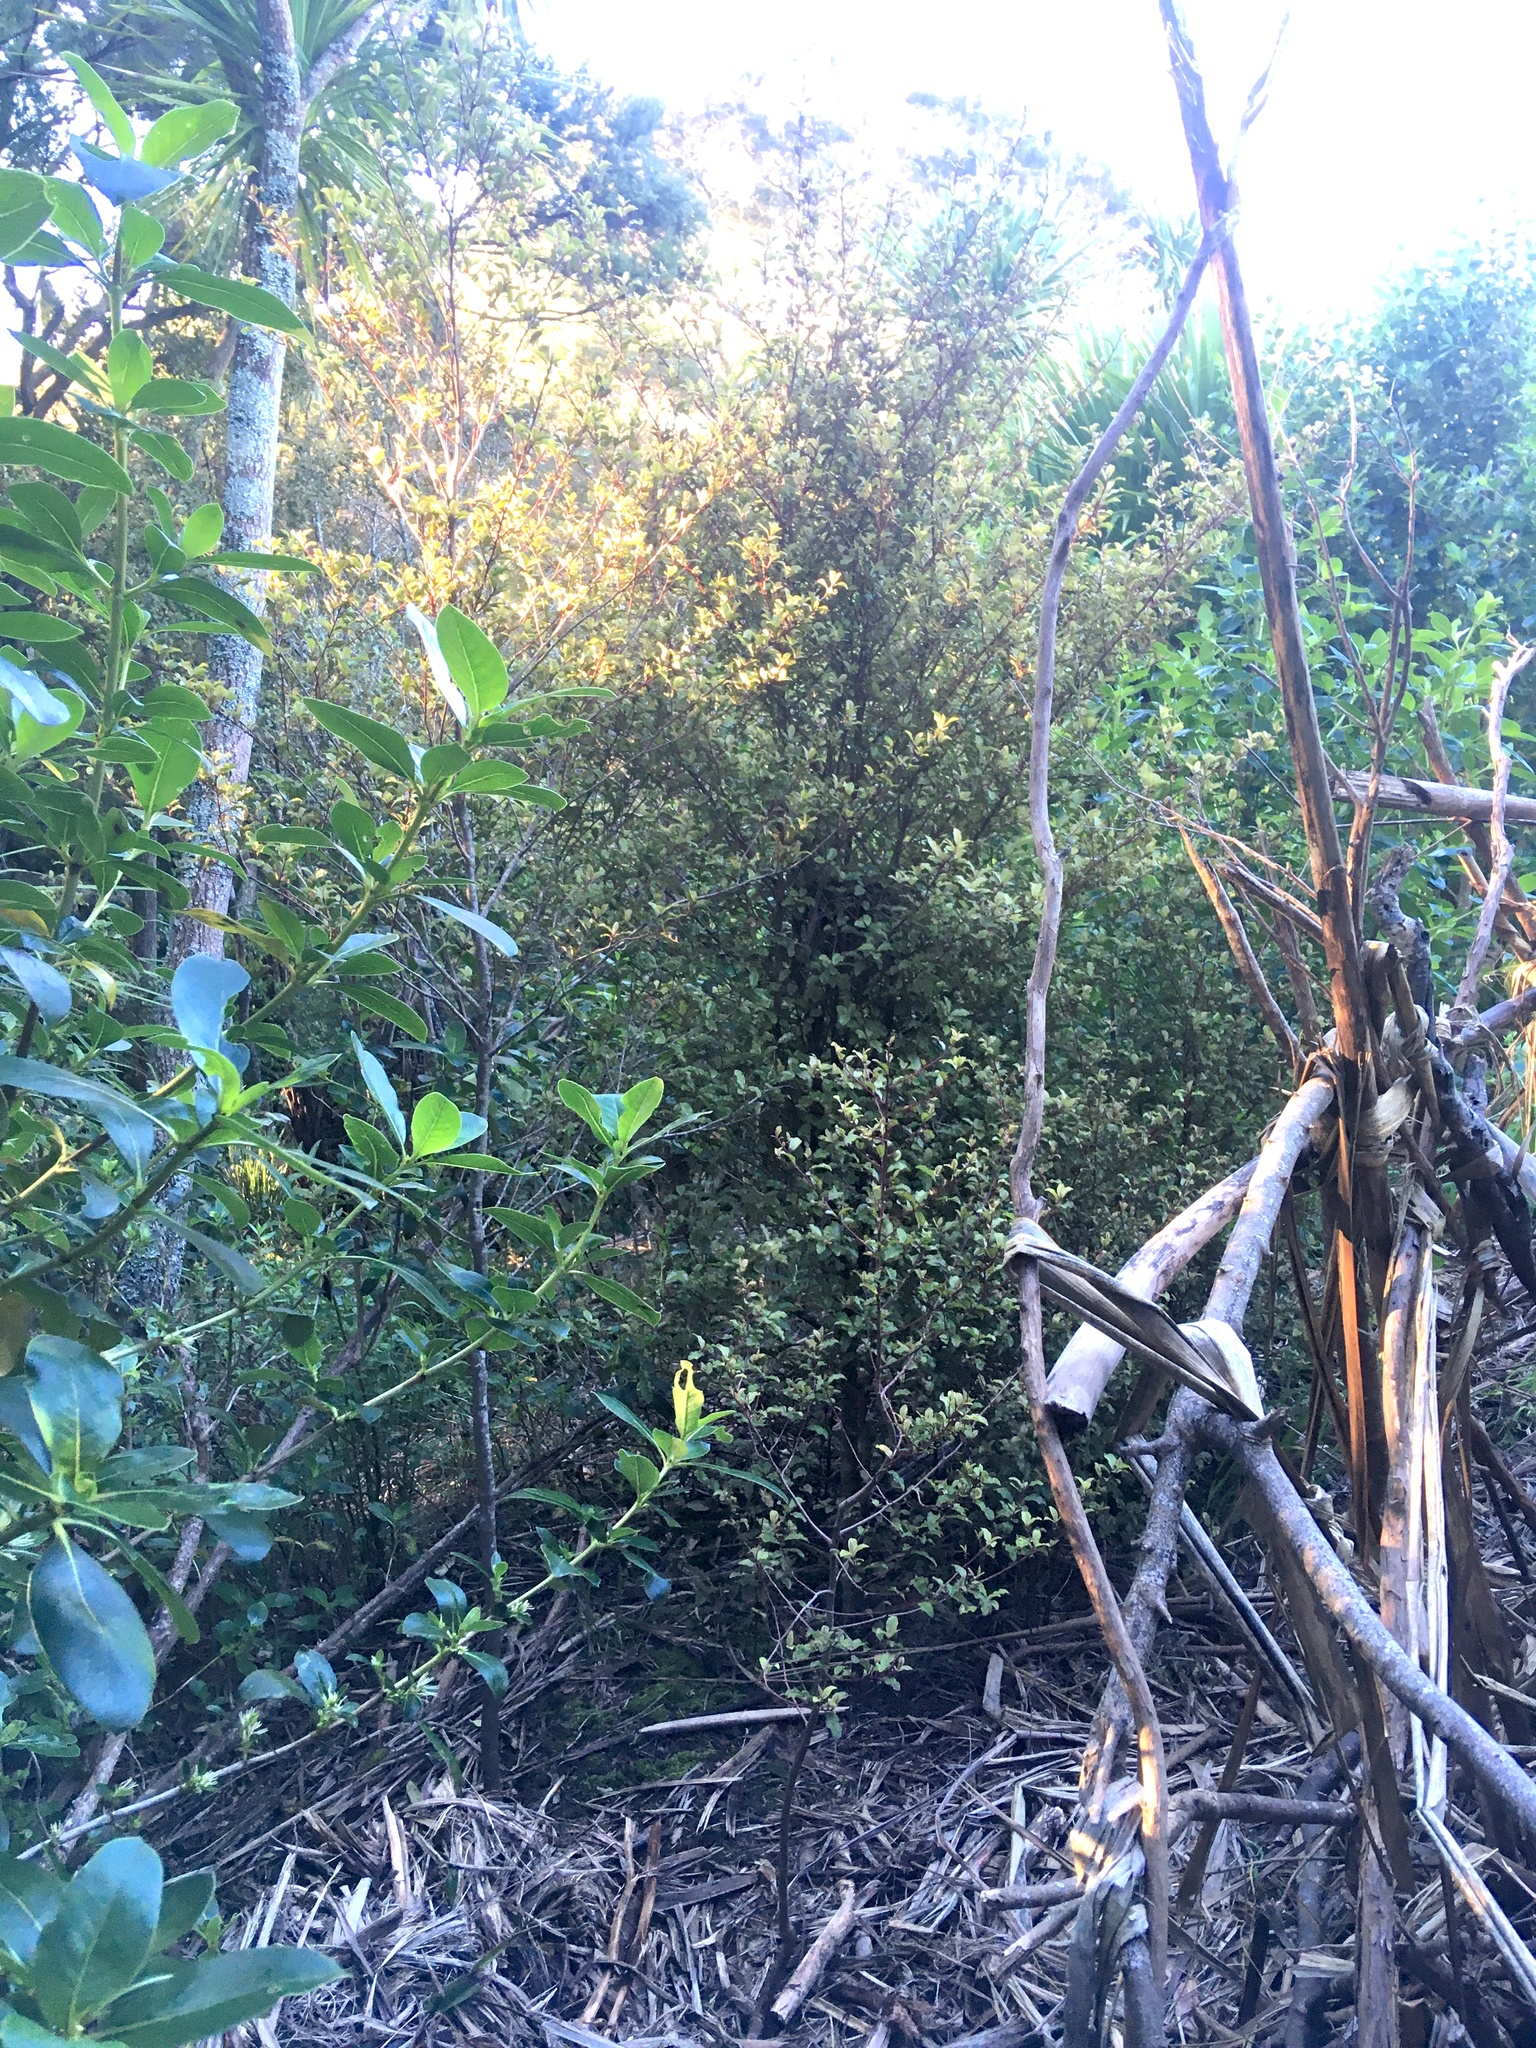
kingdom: Animalia
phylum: Chordata
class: Aves
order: Passeriformes
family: Turdidae
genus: Turdus
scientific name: Turdus merula
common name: Common blackbird
